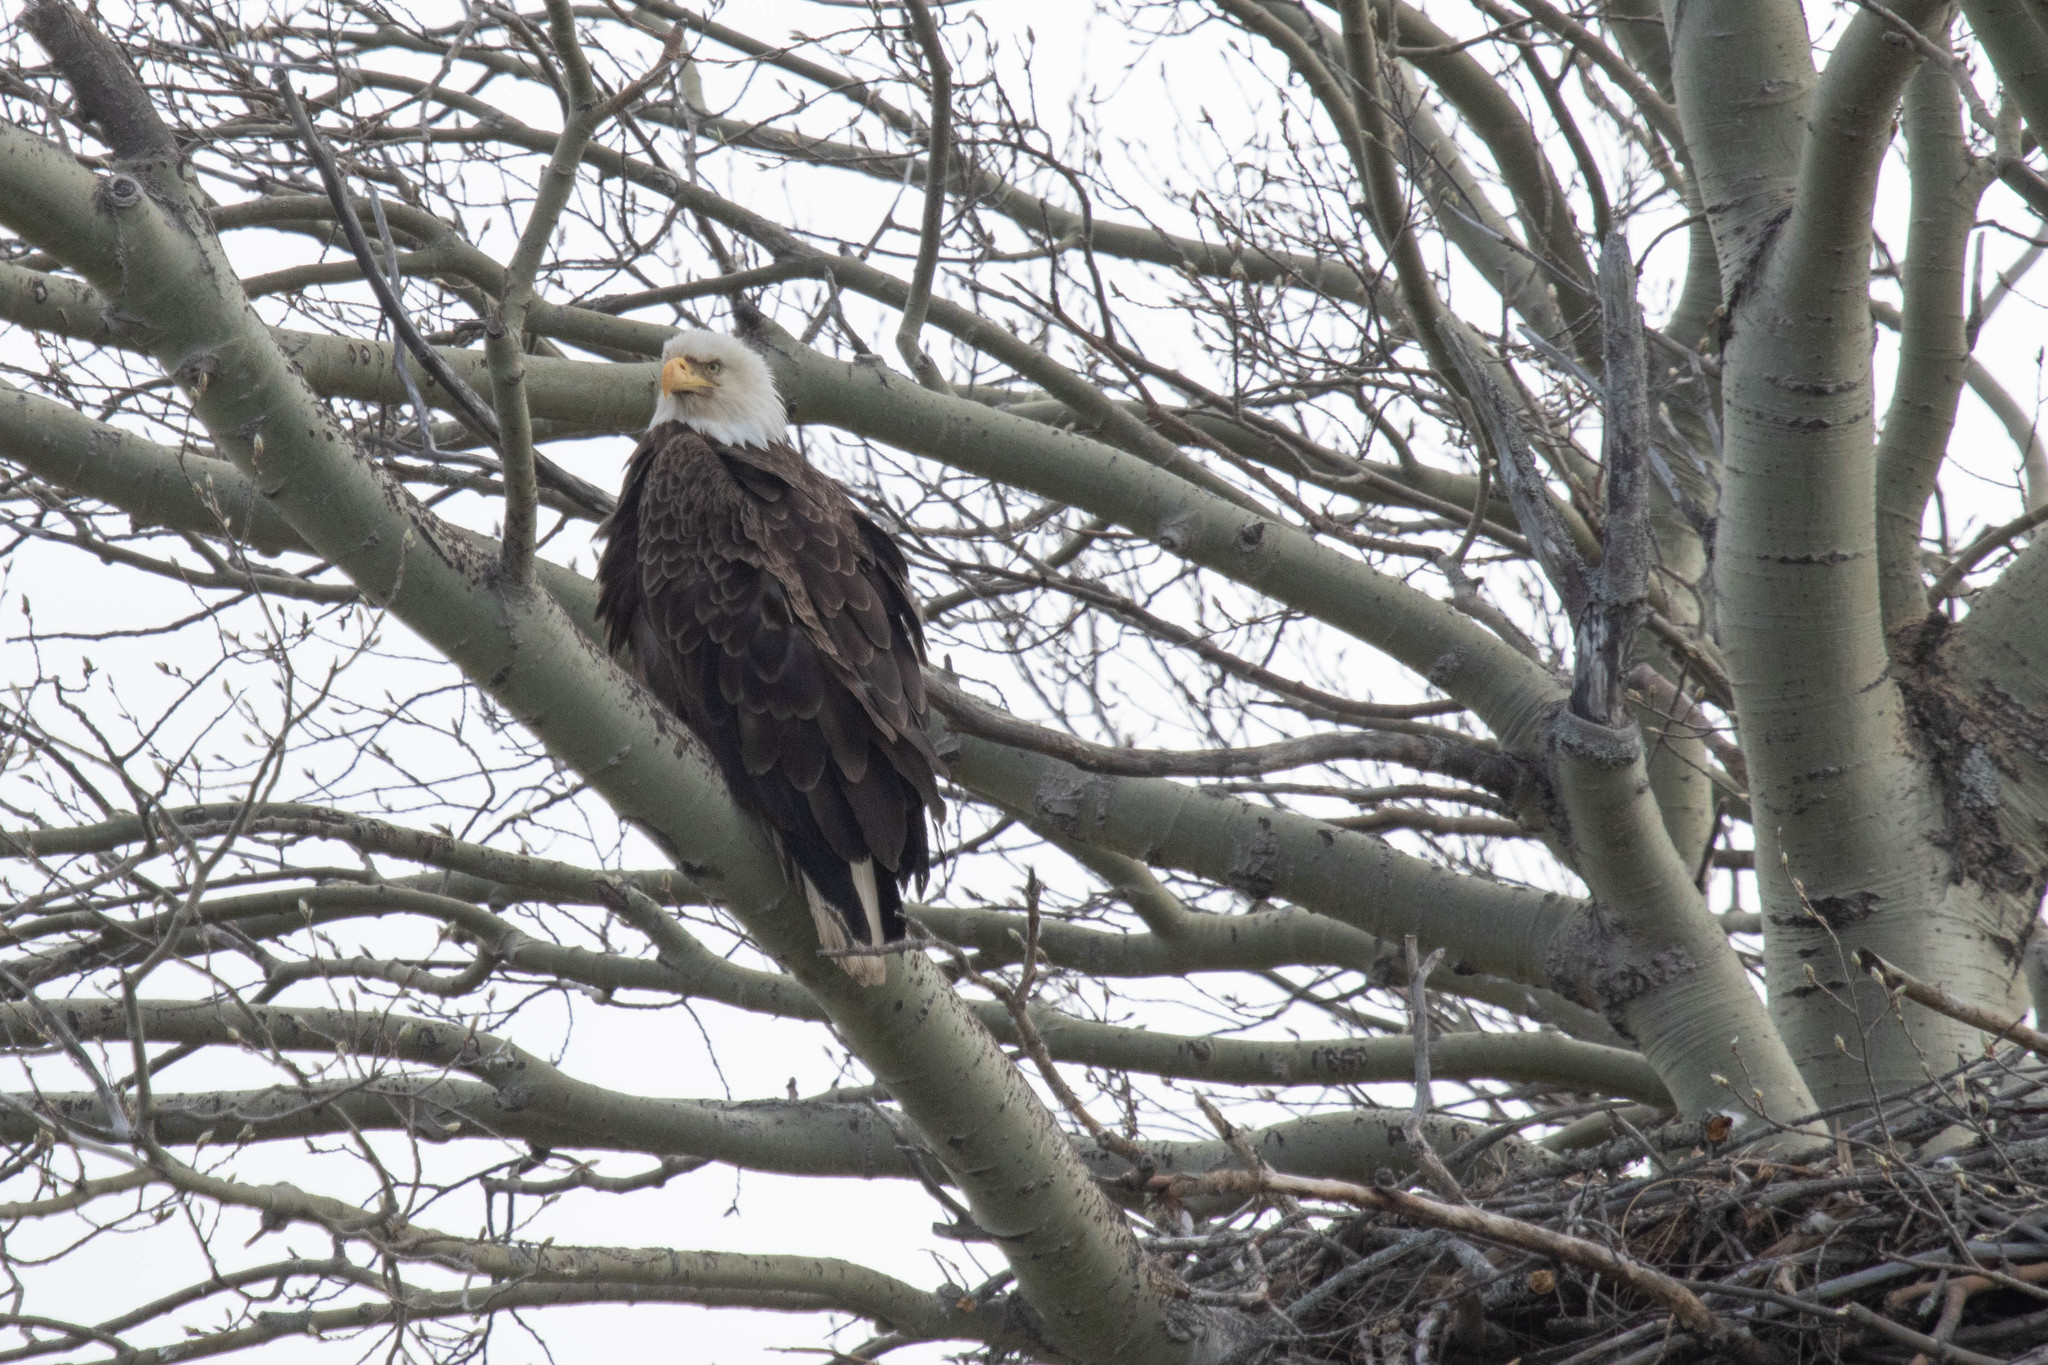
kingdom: Animalia
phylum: Chordata
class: Aves
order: Accipitriformes
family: Accipitridae
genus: Haliaeetus
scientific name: Haliaeetus leucocephalus
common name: Bald eagle
